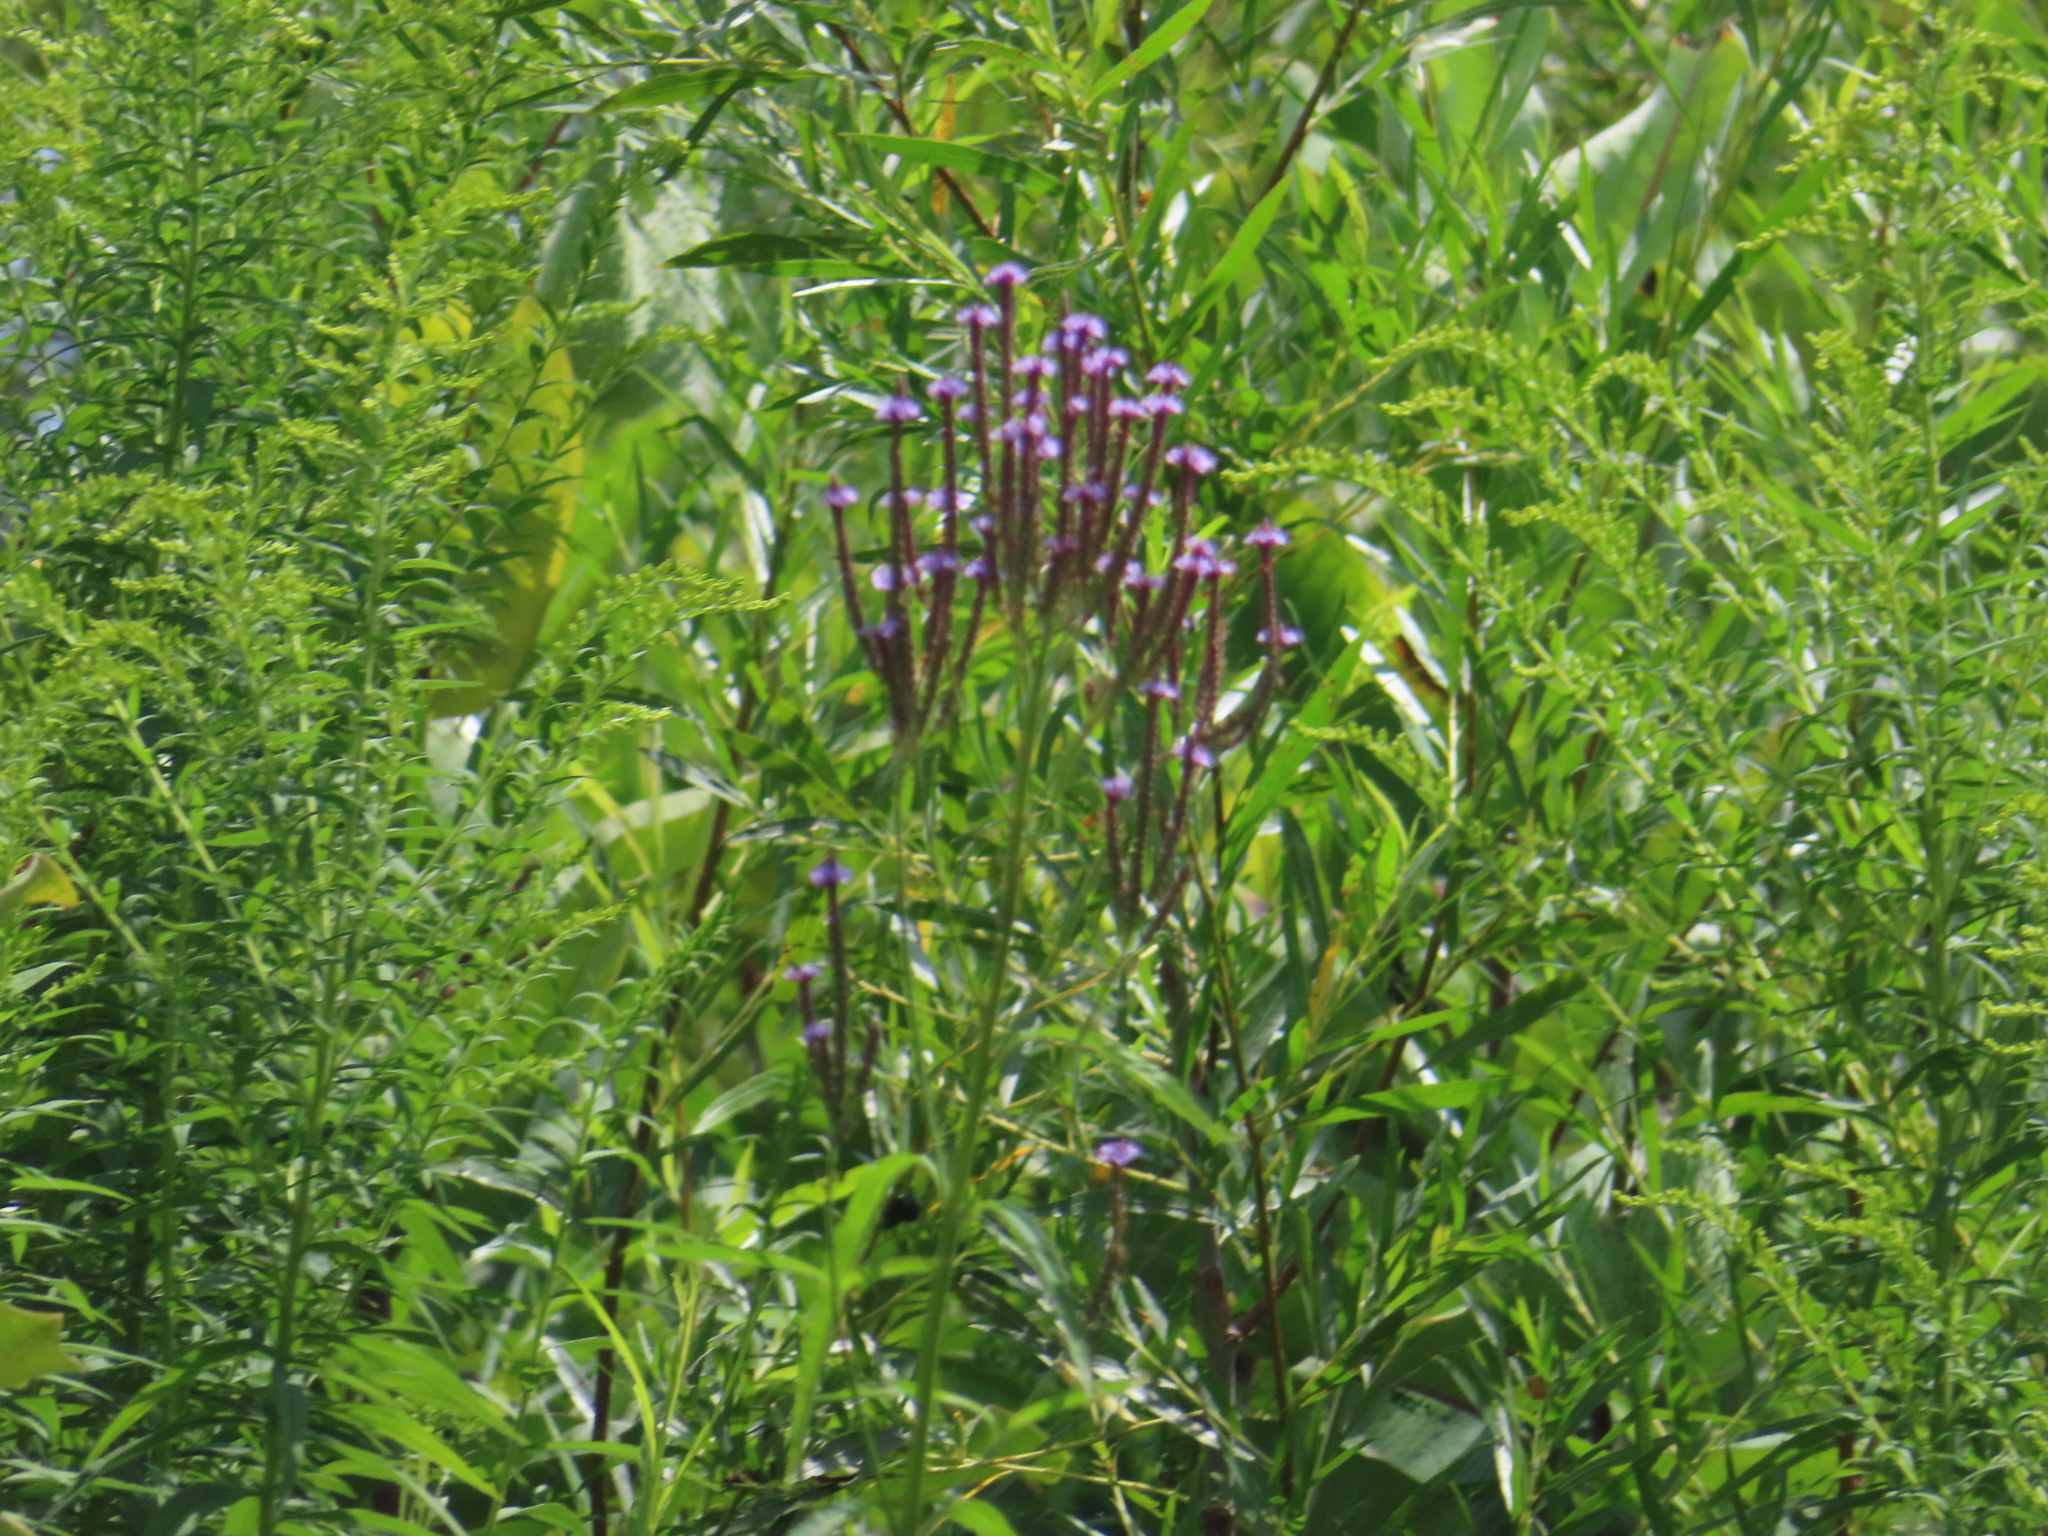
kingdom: Plantae
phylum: Tracheophyta
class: Magnoliopsida
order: Lamiales
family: Verbenaceae
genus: Verbena
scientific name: Verbena hastata
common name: American blue vervain
